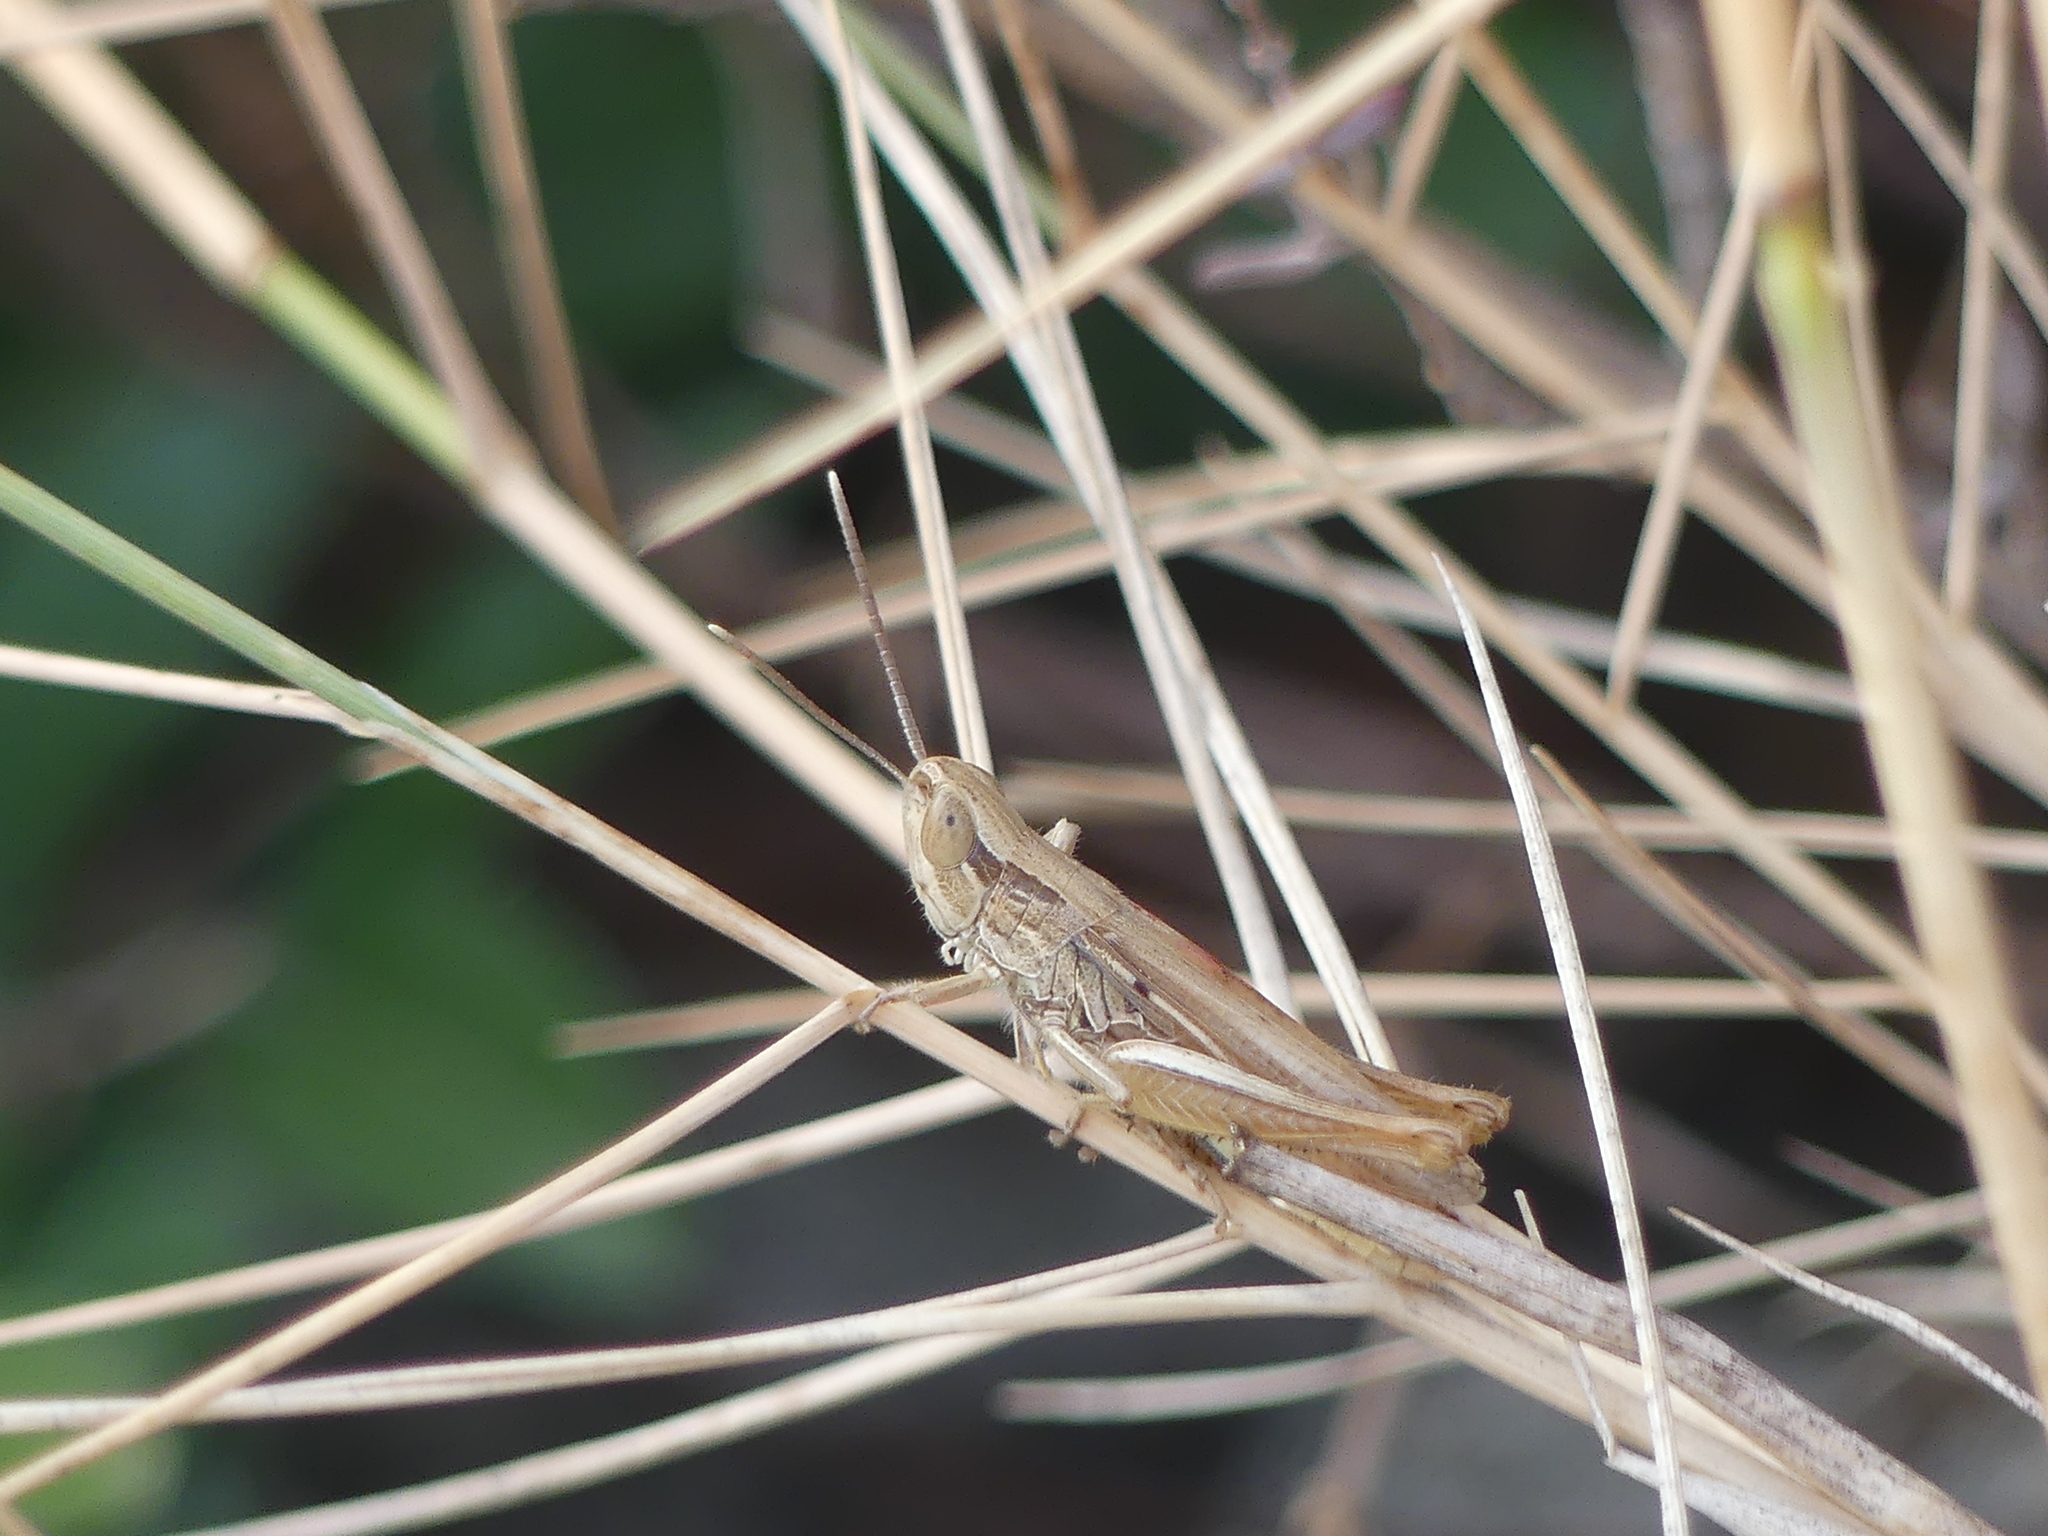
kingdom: Animalia
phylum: Arthropoda
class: Insecta
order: Orthoptera
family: Acrididae
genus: Euchorthippus
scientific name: Euchorthippus elegantulus
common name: Elegant straw grasshopper
